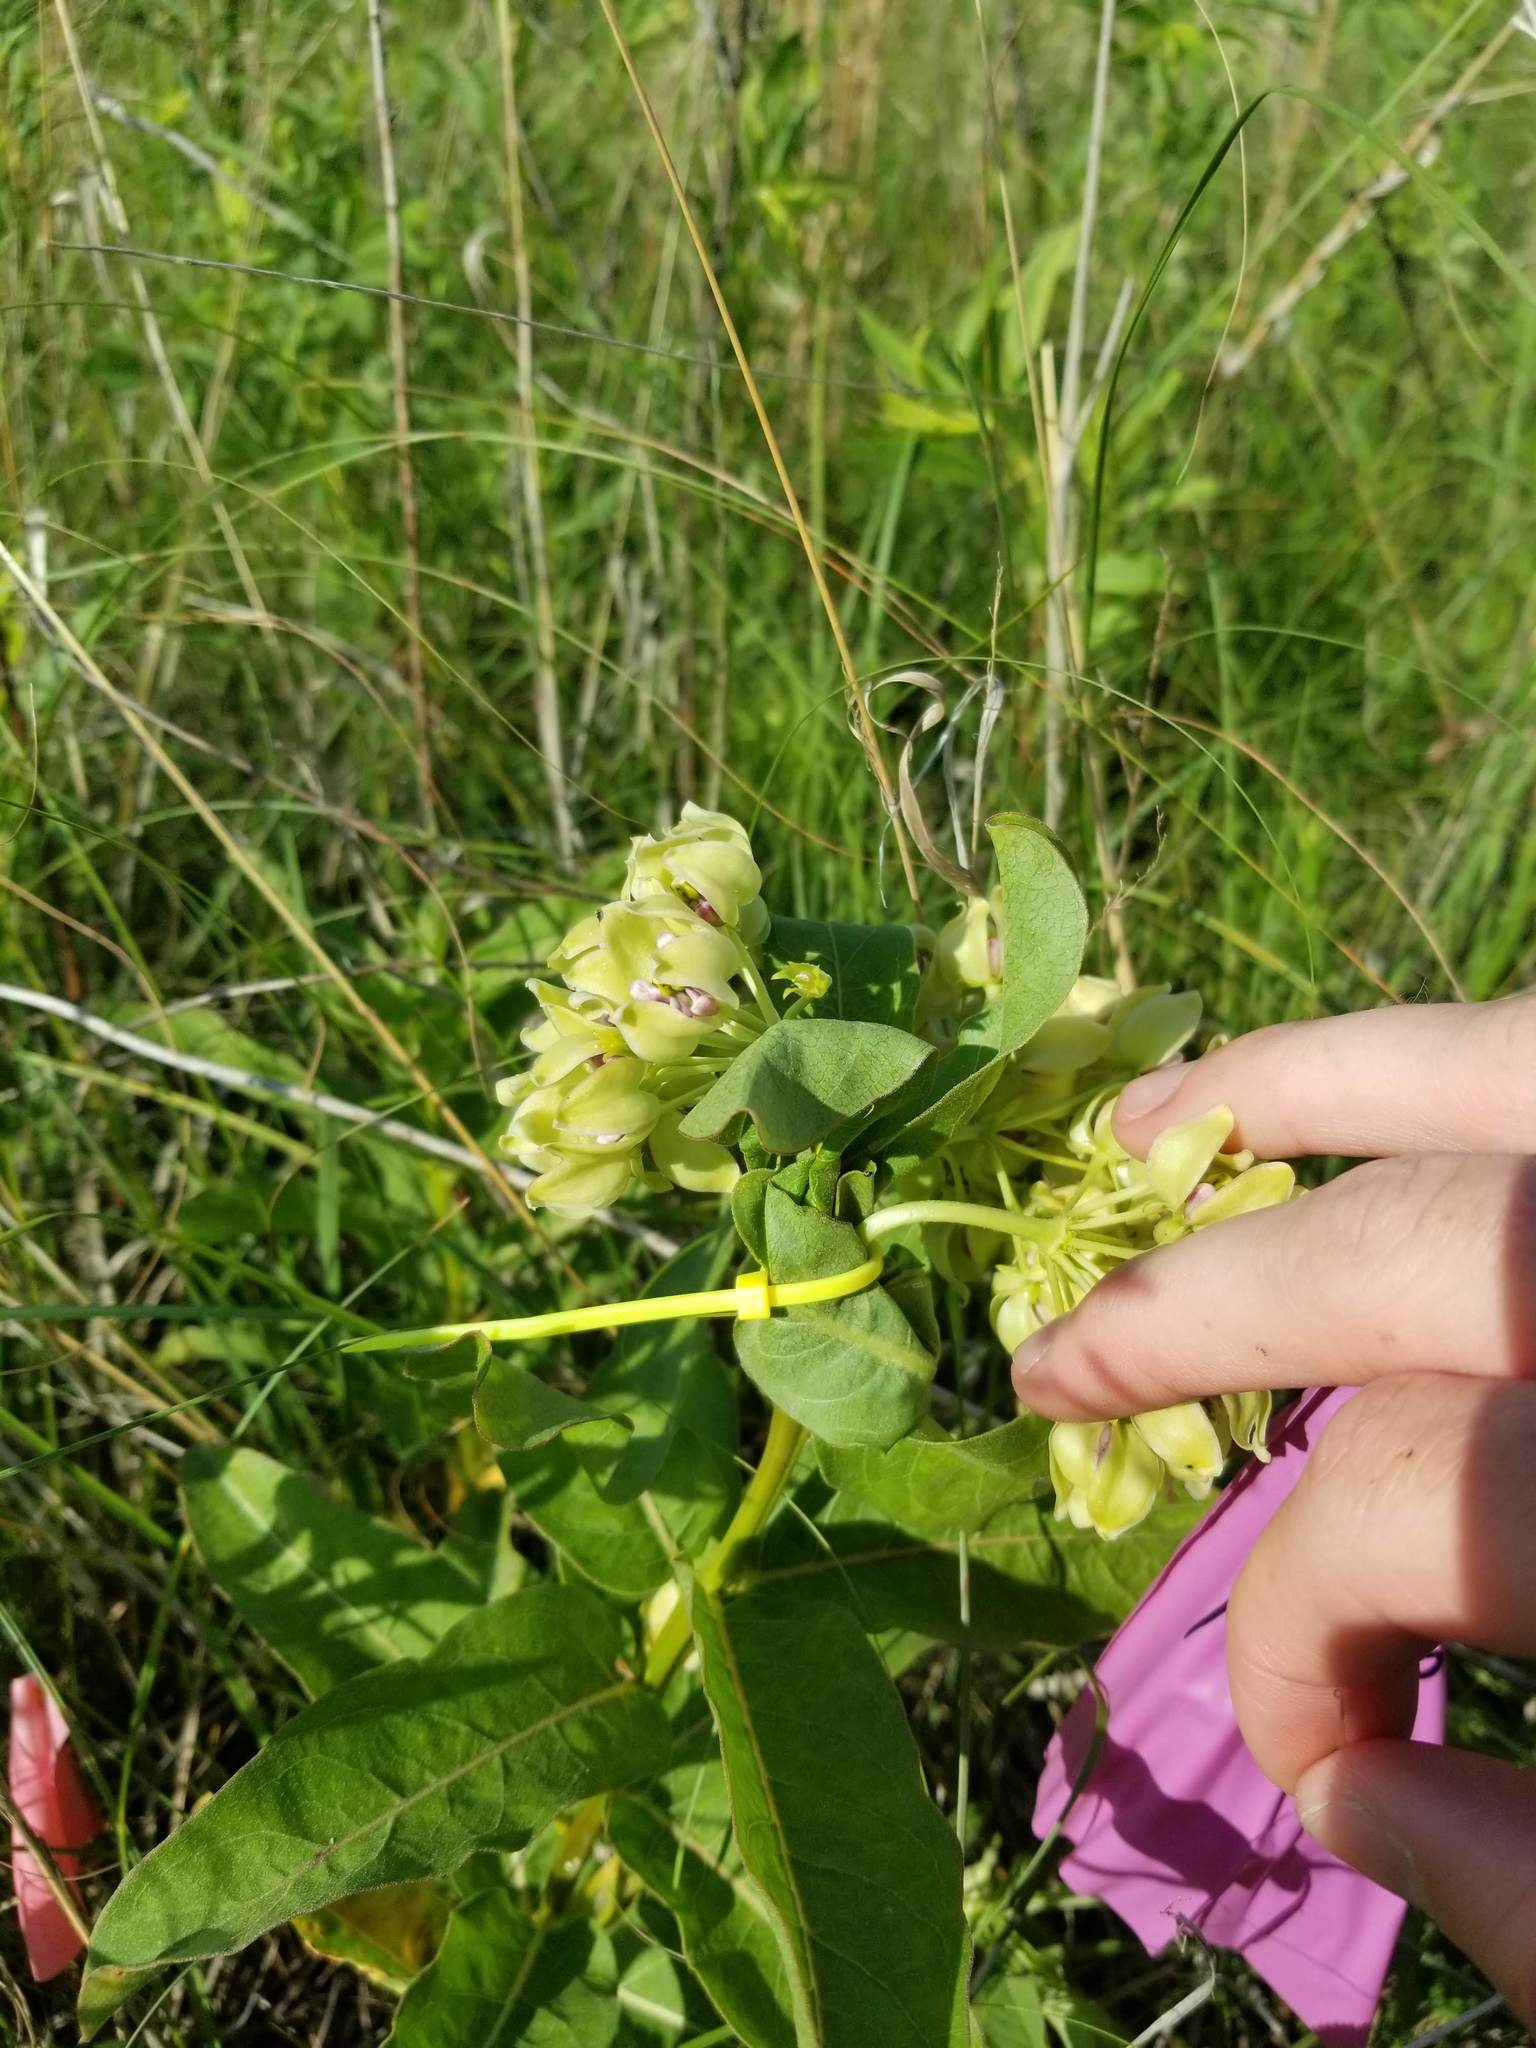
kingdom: Plantae
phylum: Tracheophyta
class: Magnoliopsida
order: Gentianales
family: Apocynaceae
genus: Asclepias
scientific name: Asclepias viridis
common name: Antelope-horns
